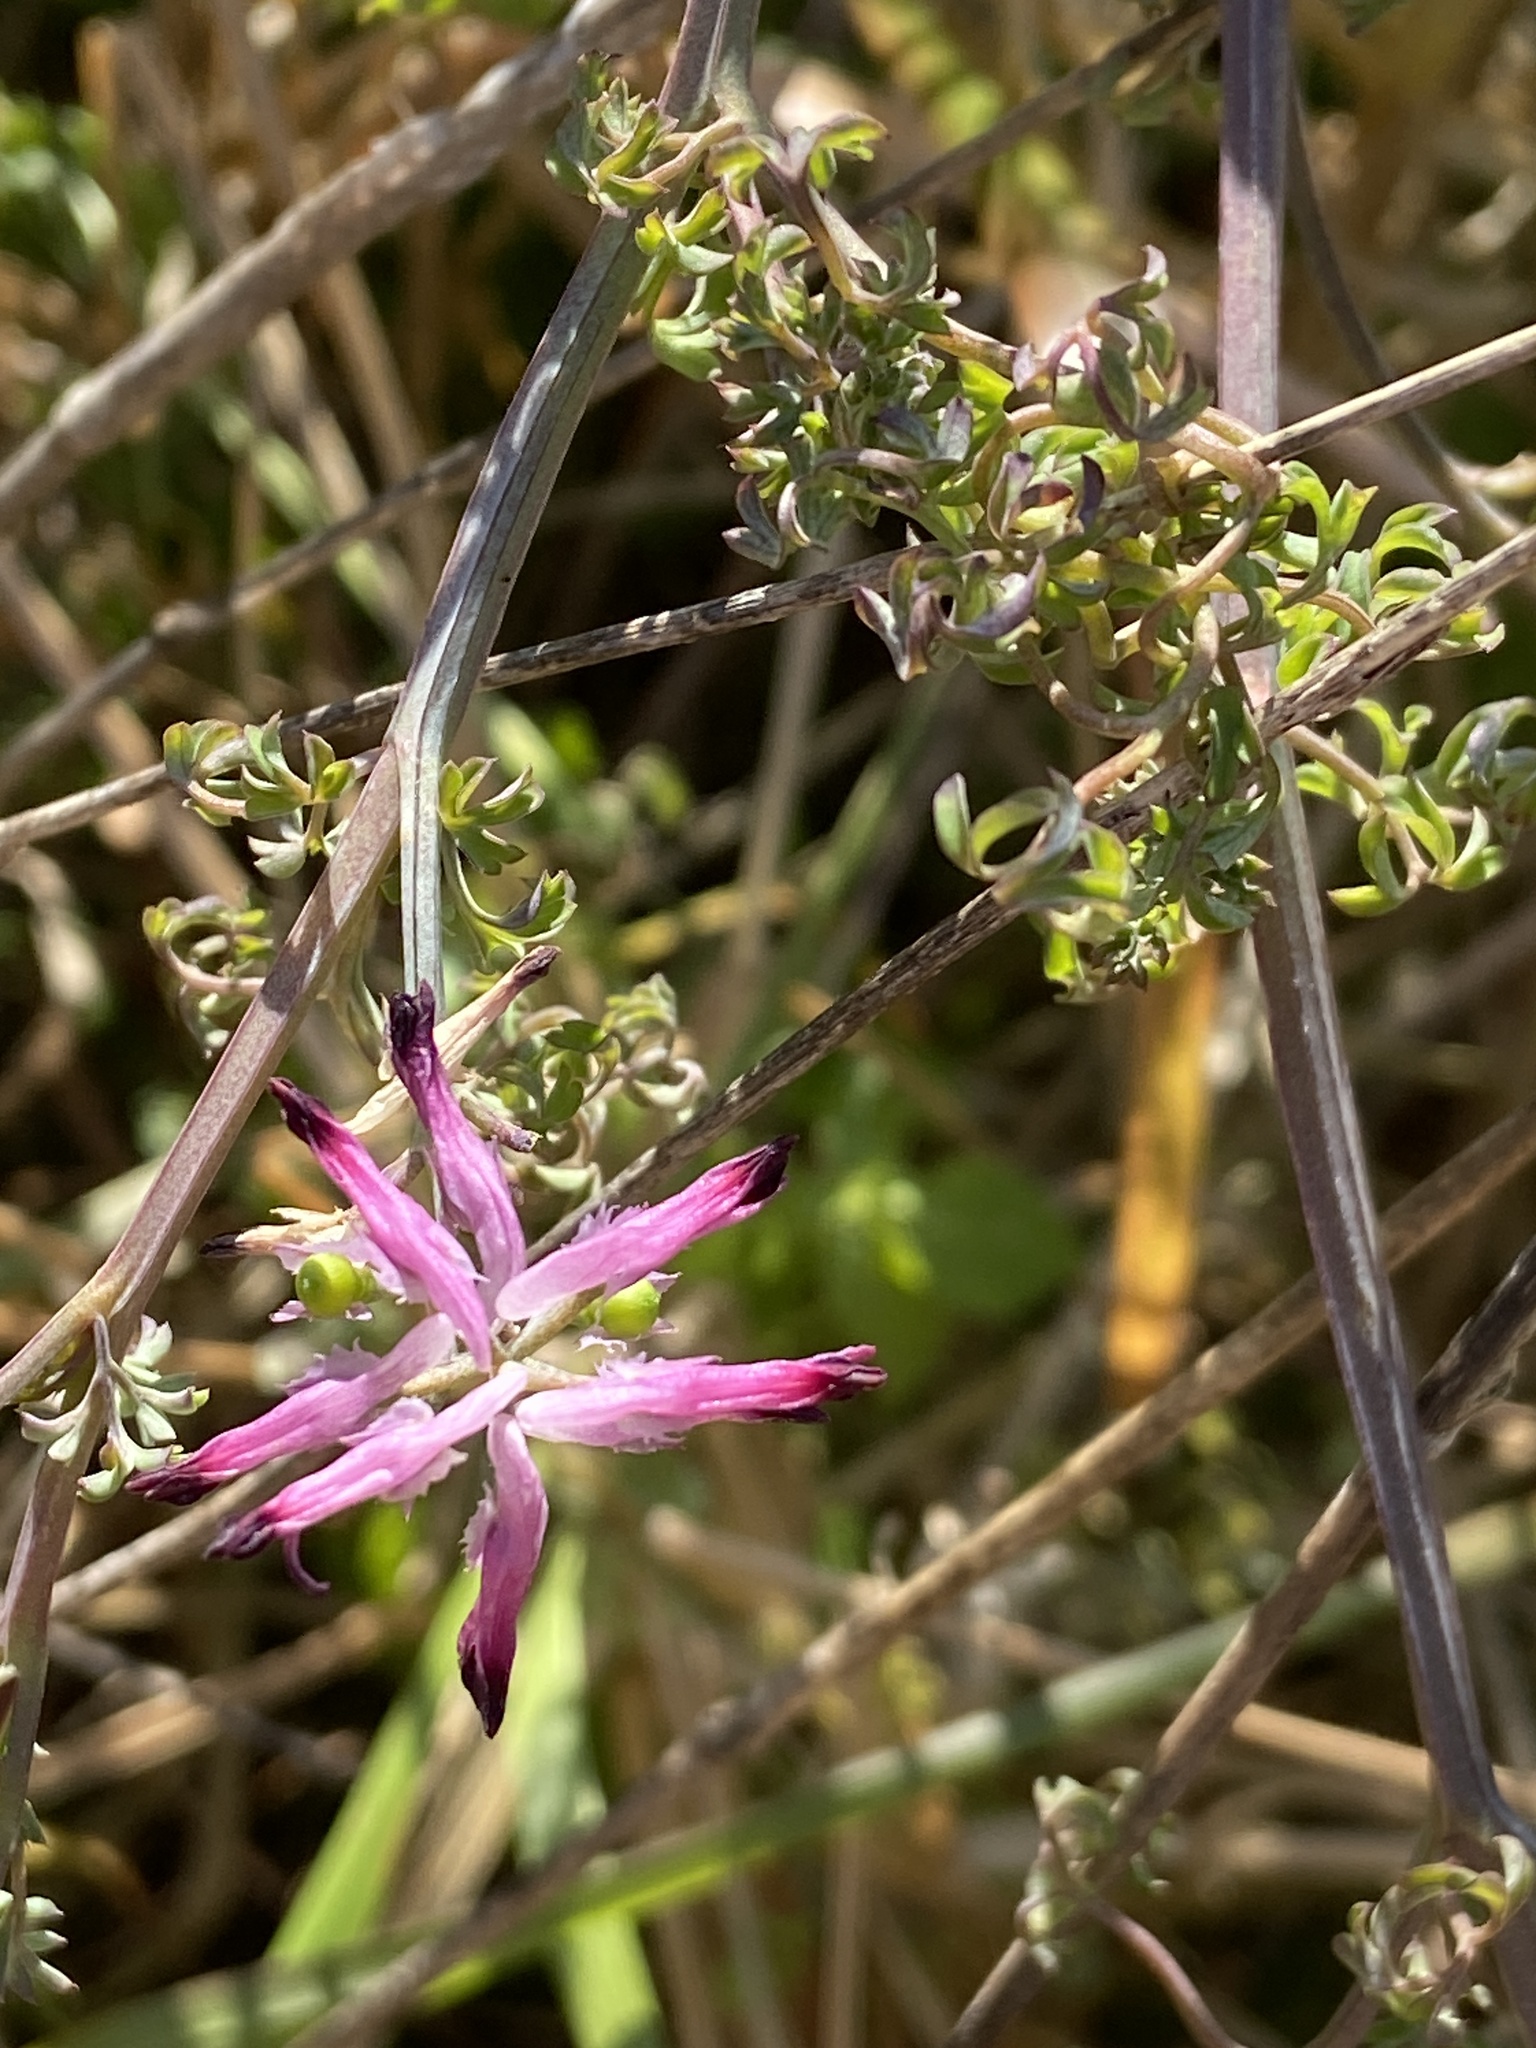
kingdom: Plantae
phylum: Tracheophyta
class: Magnoliopsida
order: Ranunculales
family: Papaveraceae
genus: Fumaria
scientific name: Fumaria bastardii
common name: Tall ramping-fumitory
